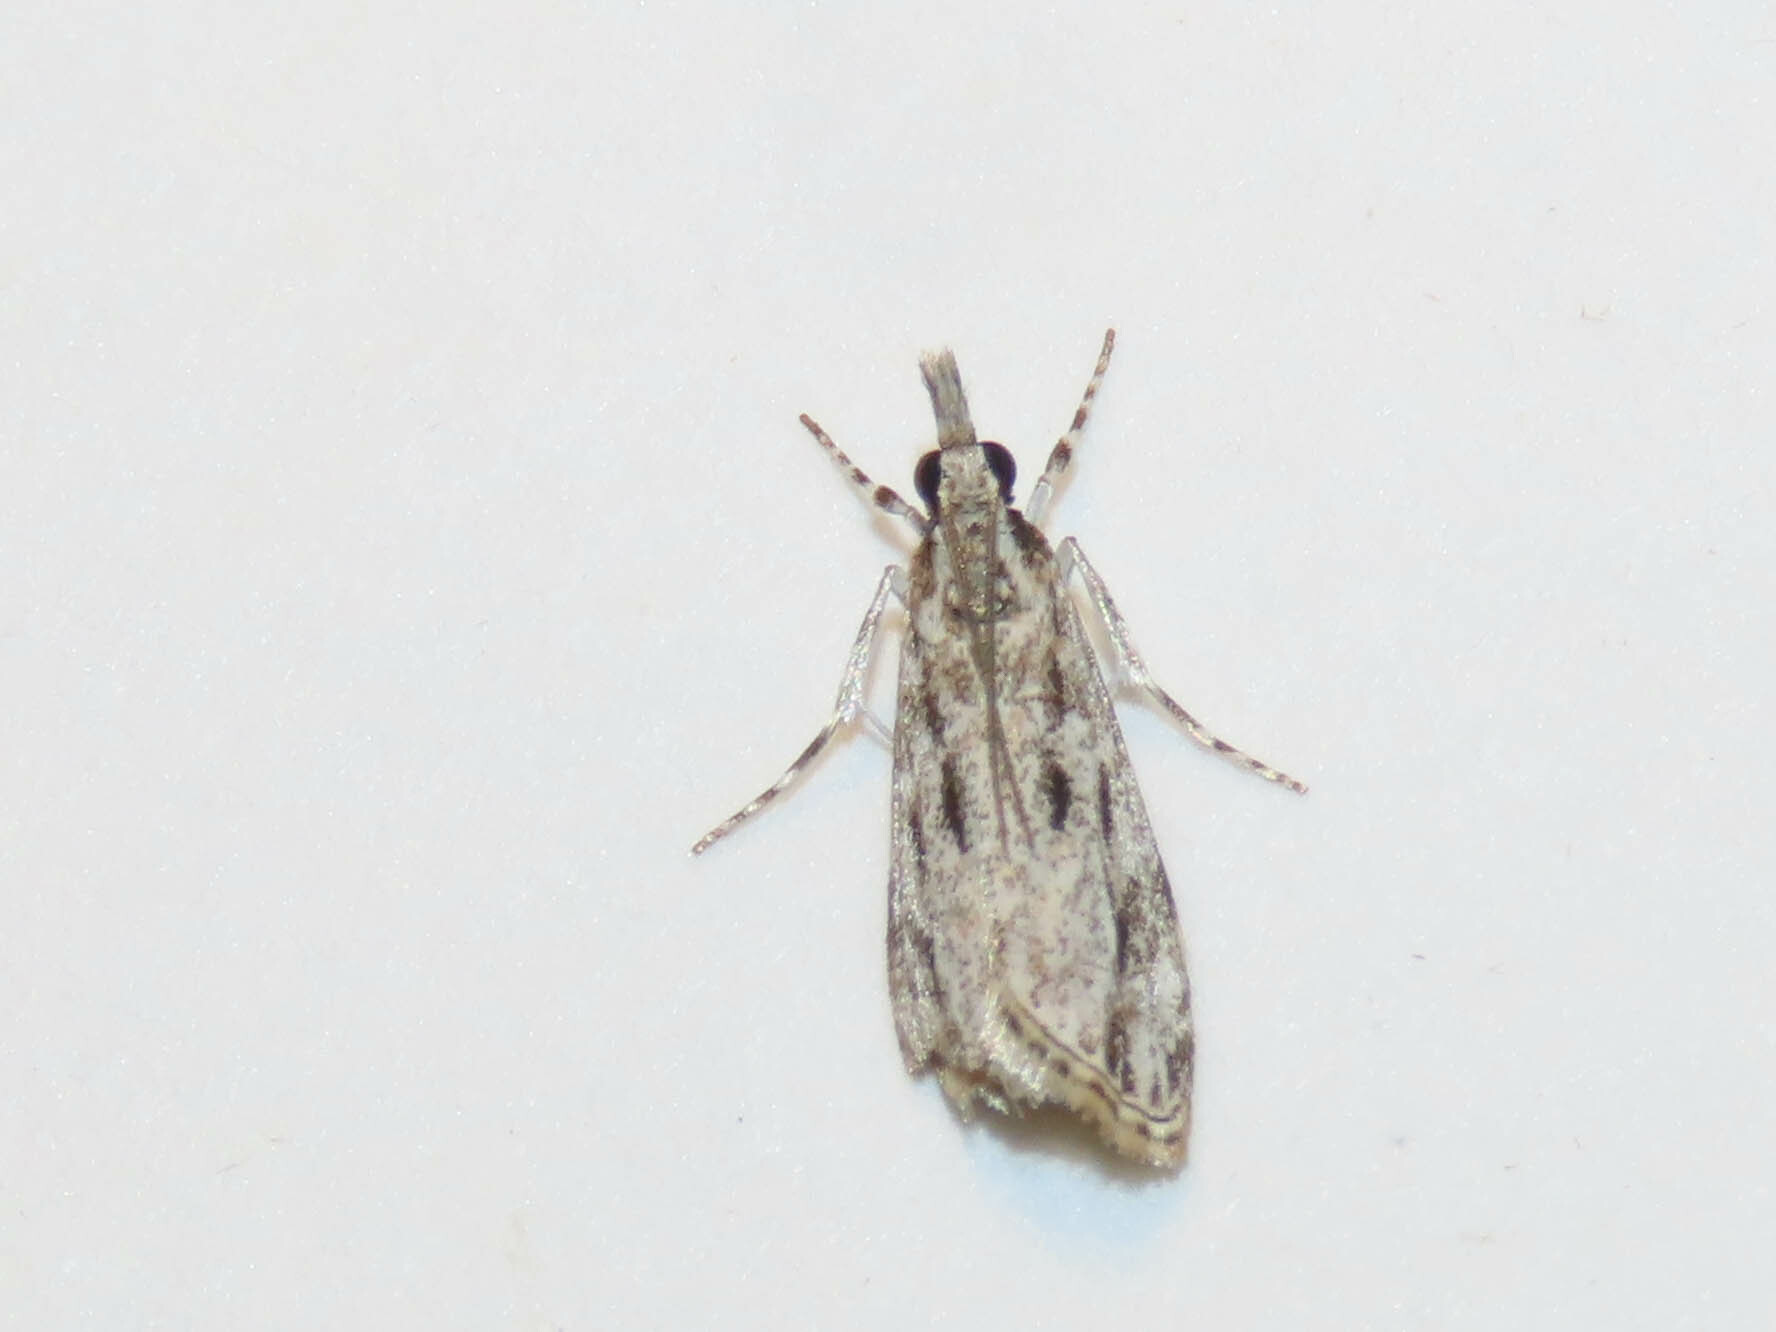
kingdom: Animalia
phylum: Arthropoda
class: Insecta
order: Lepidoptera
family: Crambidae
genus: Eudonia
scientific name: Eudonia strigalis
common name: Striped eudonia moth
